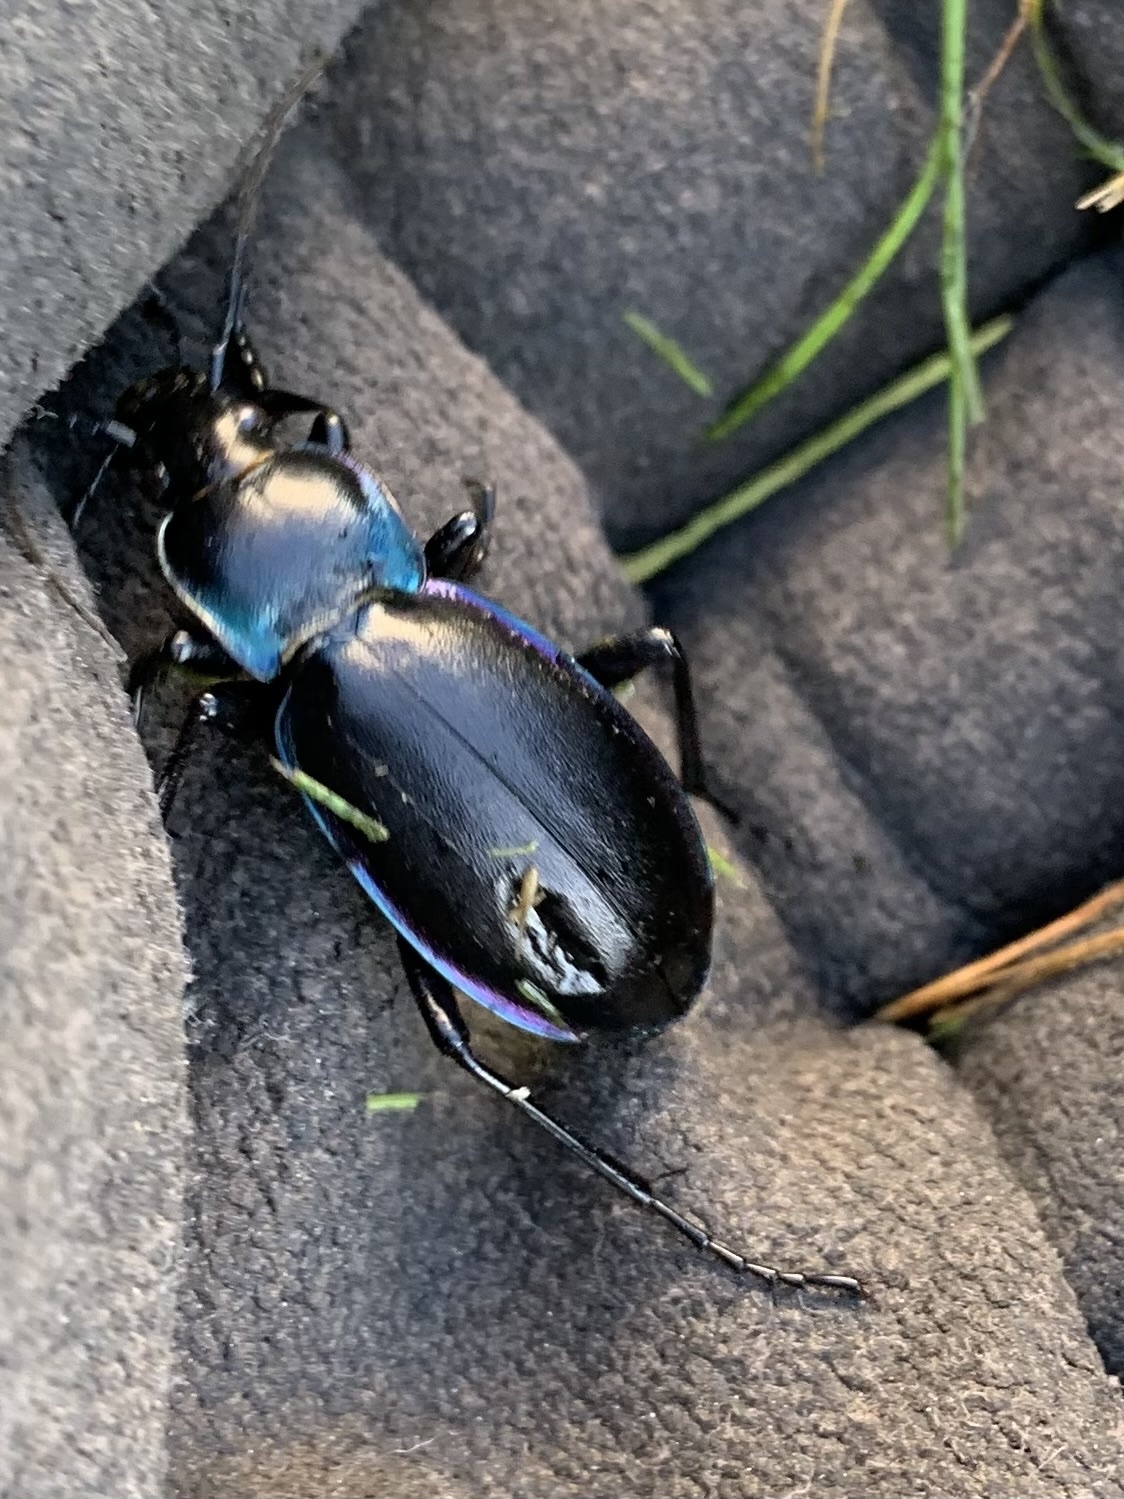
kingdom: Animalia
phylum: Arthropoda
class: Insecta
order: Coleoptera
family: Carabidae
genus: Carabus
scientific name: Carabus violaceus
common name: Violet ground beetle
